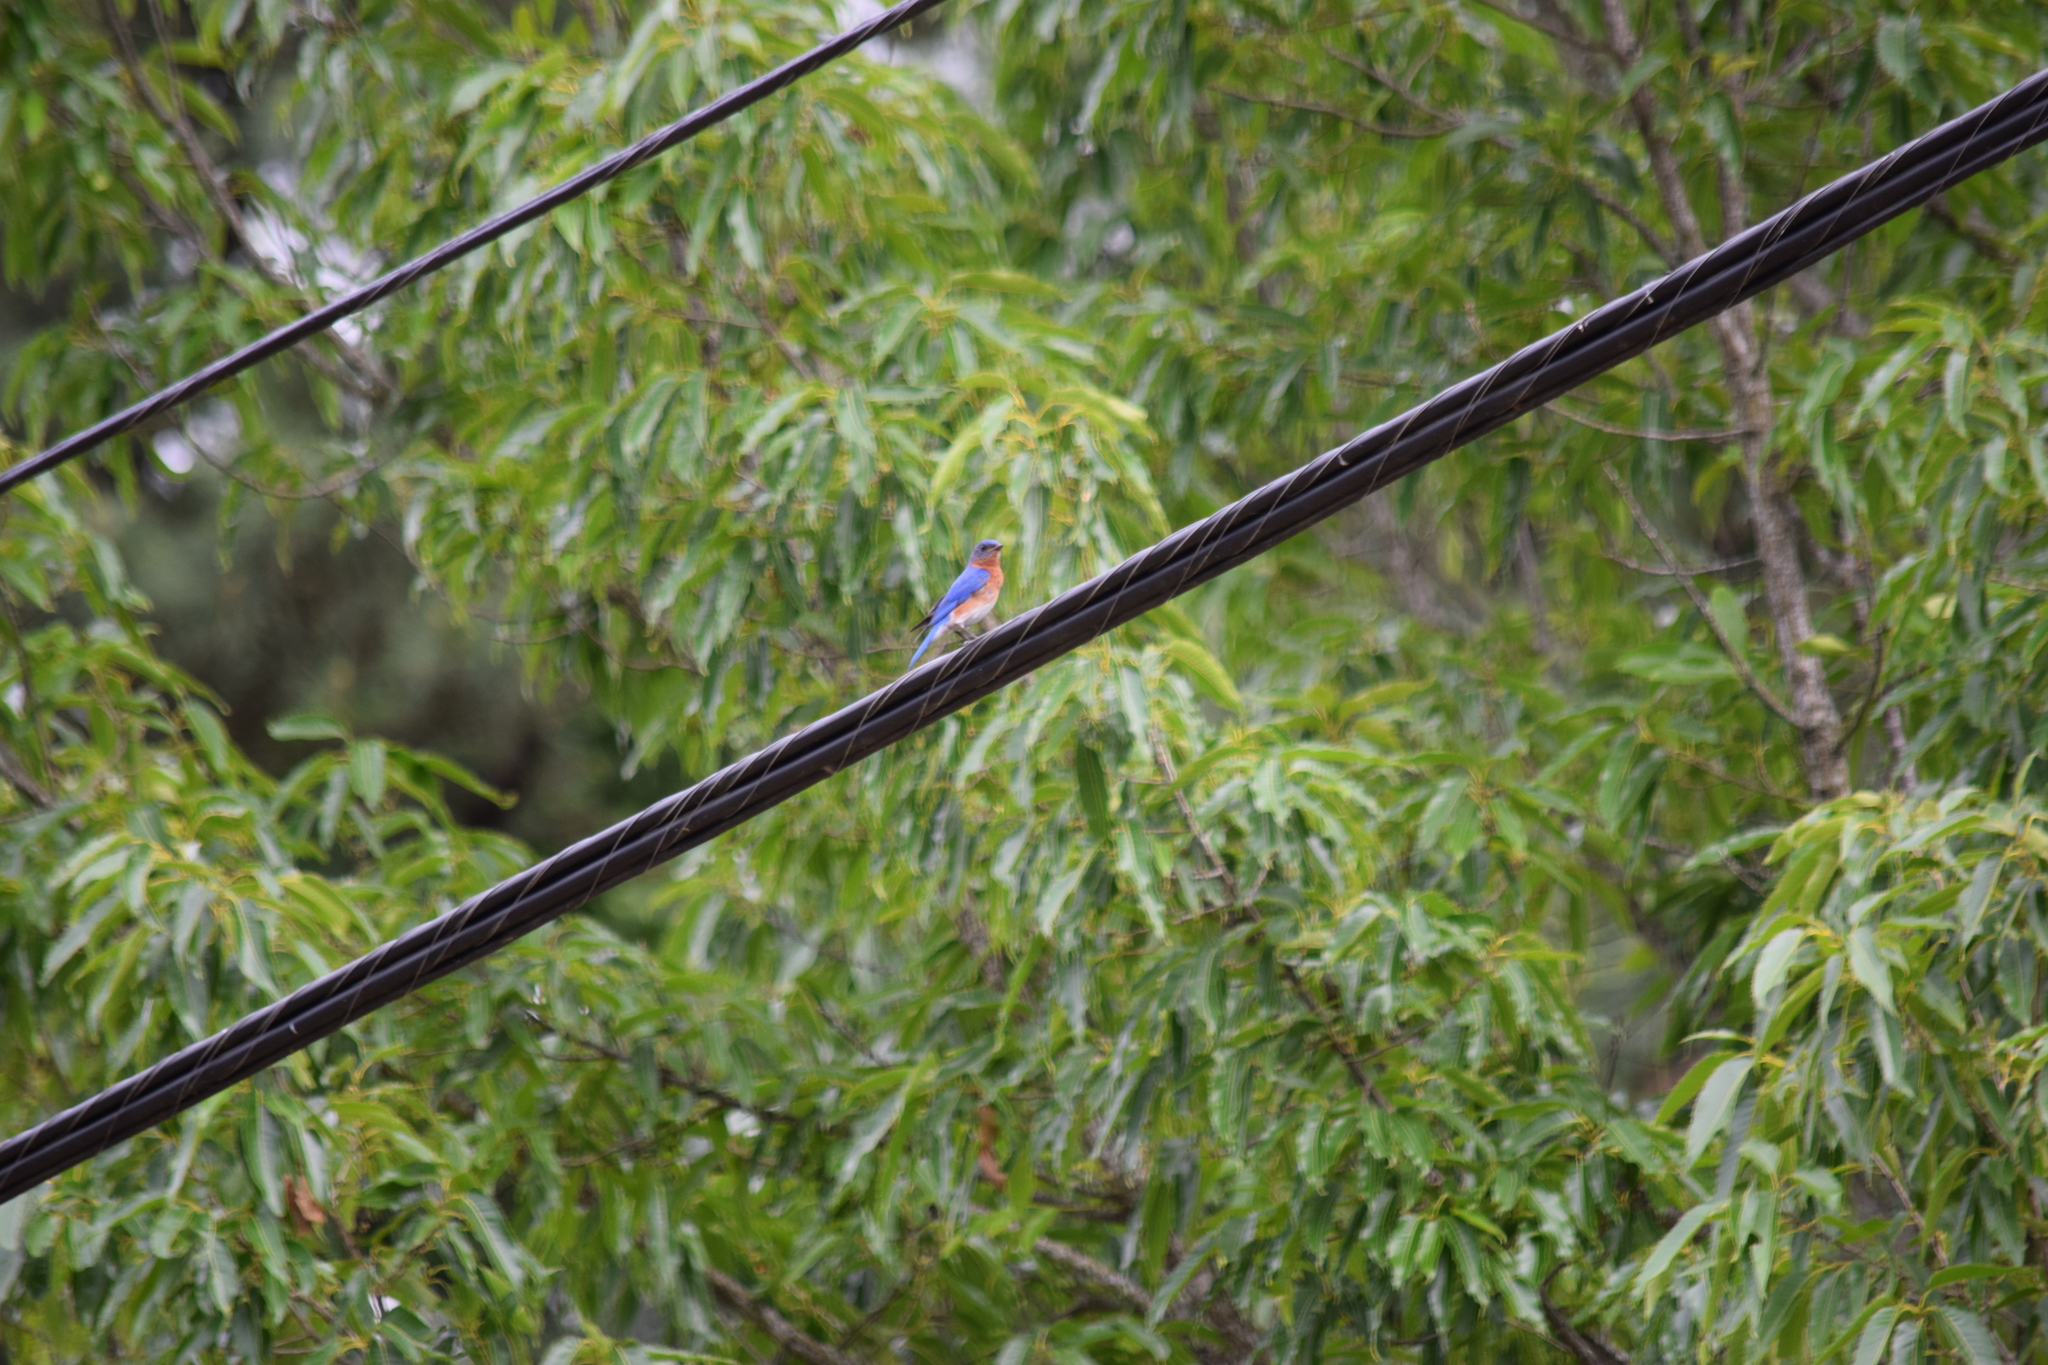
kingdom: Animalia
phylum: Chordata
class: Aves
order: Passeriformes
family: Turdidae
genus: Sialia
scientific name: Sialia sialis
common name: Eastern bluebird
